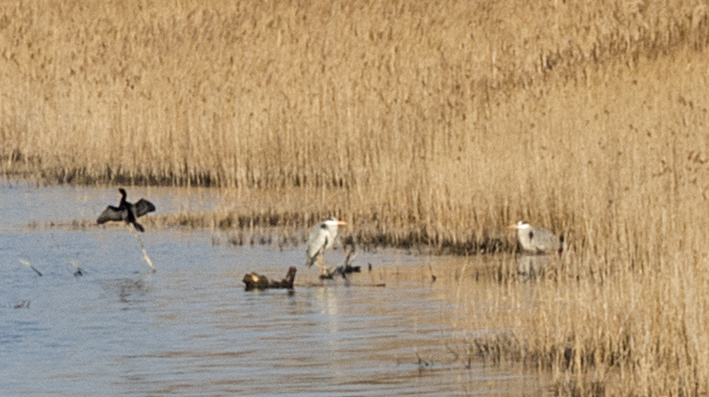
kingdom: Animalia
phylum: Chordata
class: Aves
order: Pelecaniformes
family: Ardeidae
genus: Ardea
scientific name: Ardea cinerea
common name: Grey heron
